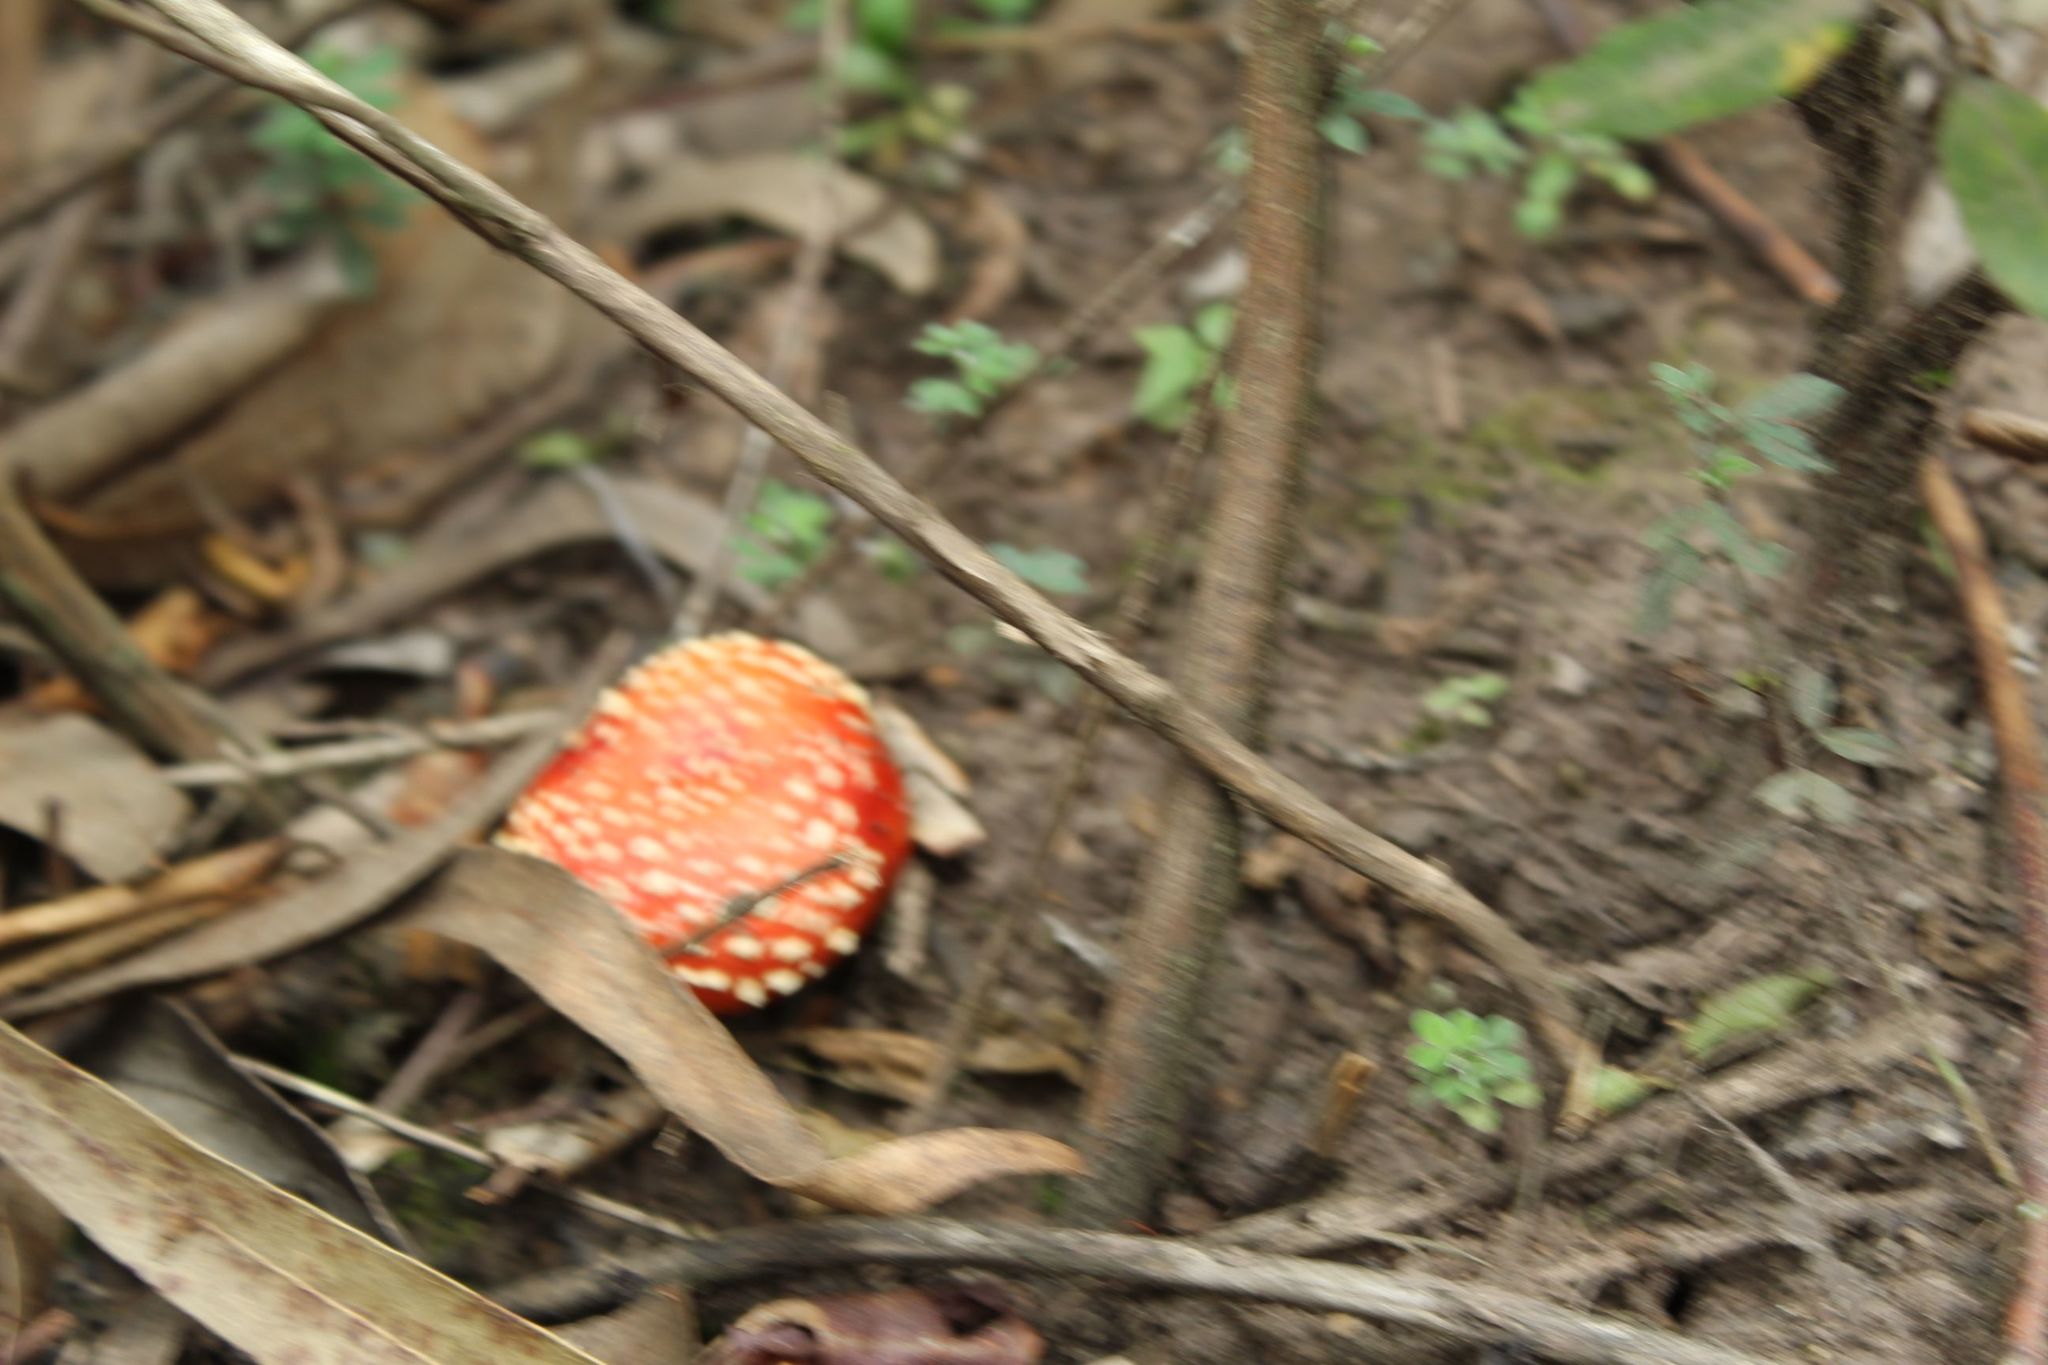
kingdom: Fungi
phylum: Basidiomycota
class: Agaricomycetes
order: Agaricales
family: Amanitaceae
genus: Amanita
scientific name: Amanita muscaria
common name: Fly agaric
